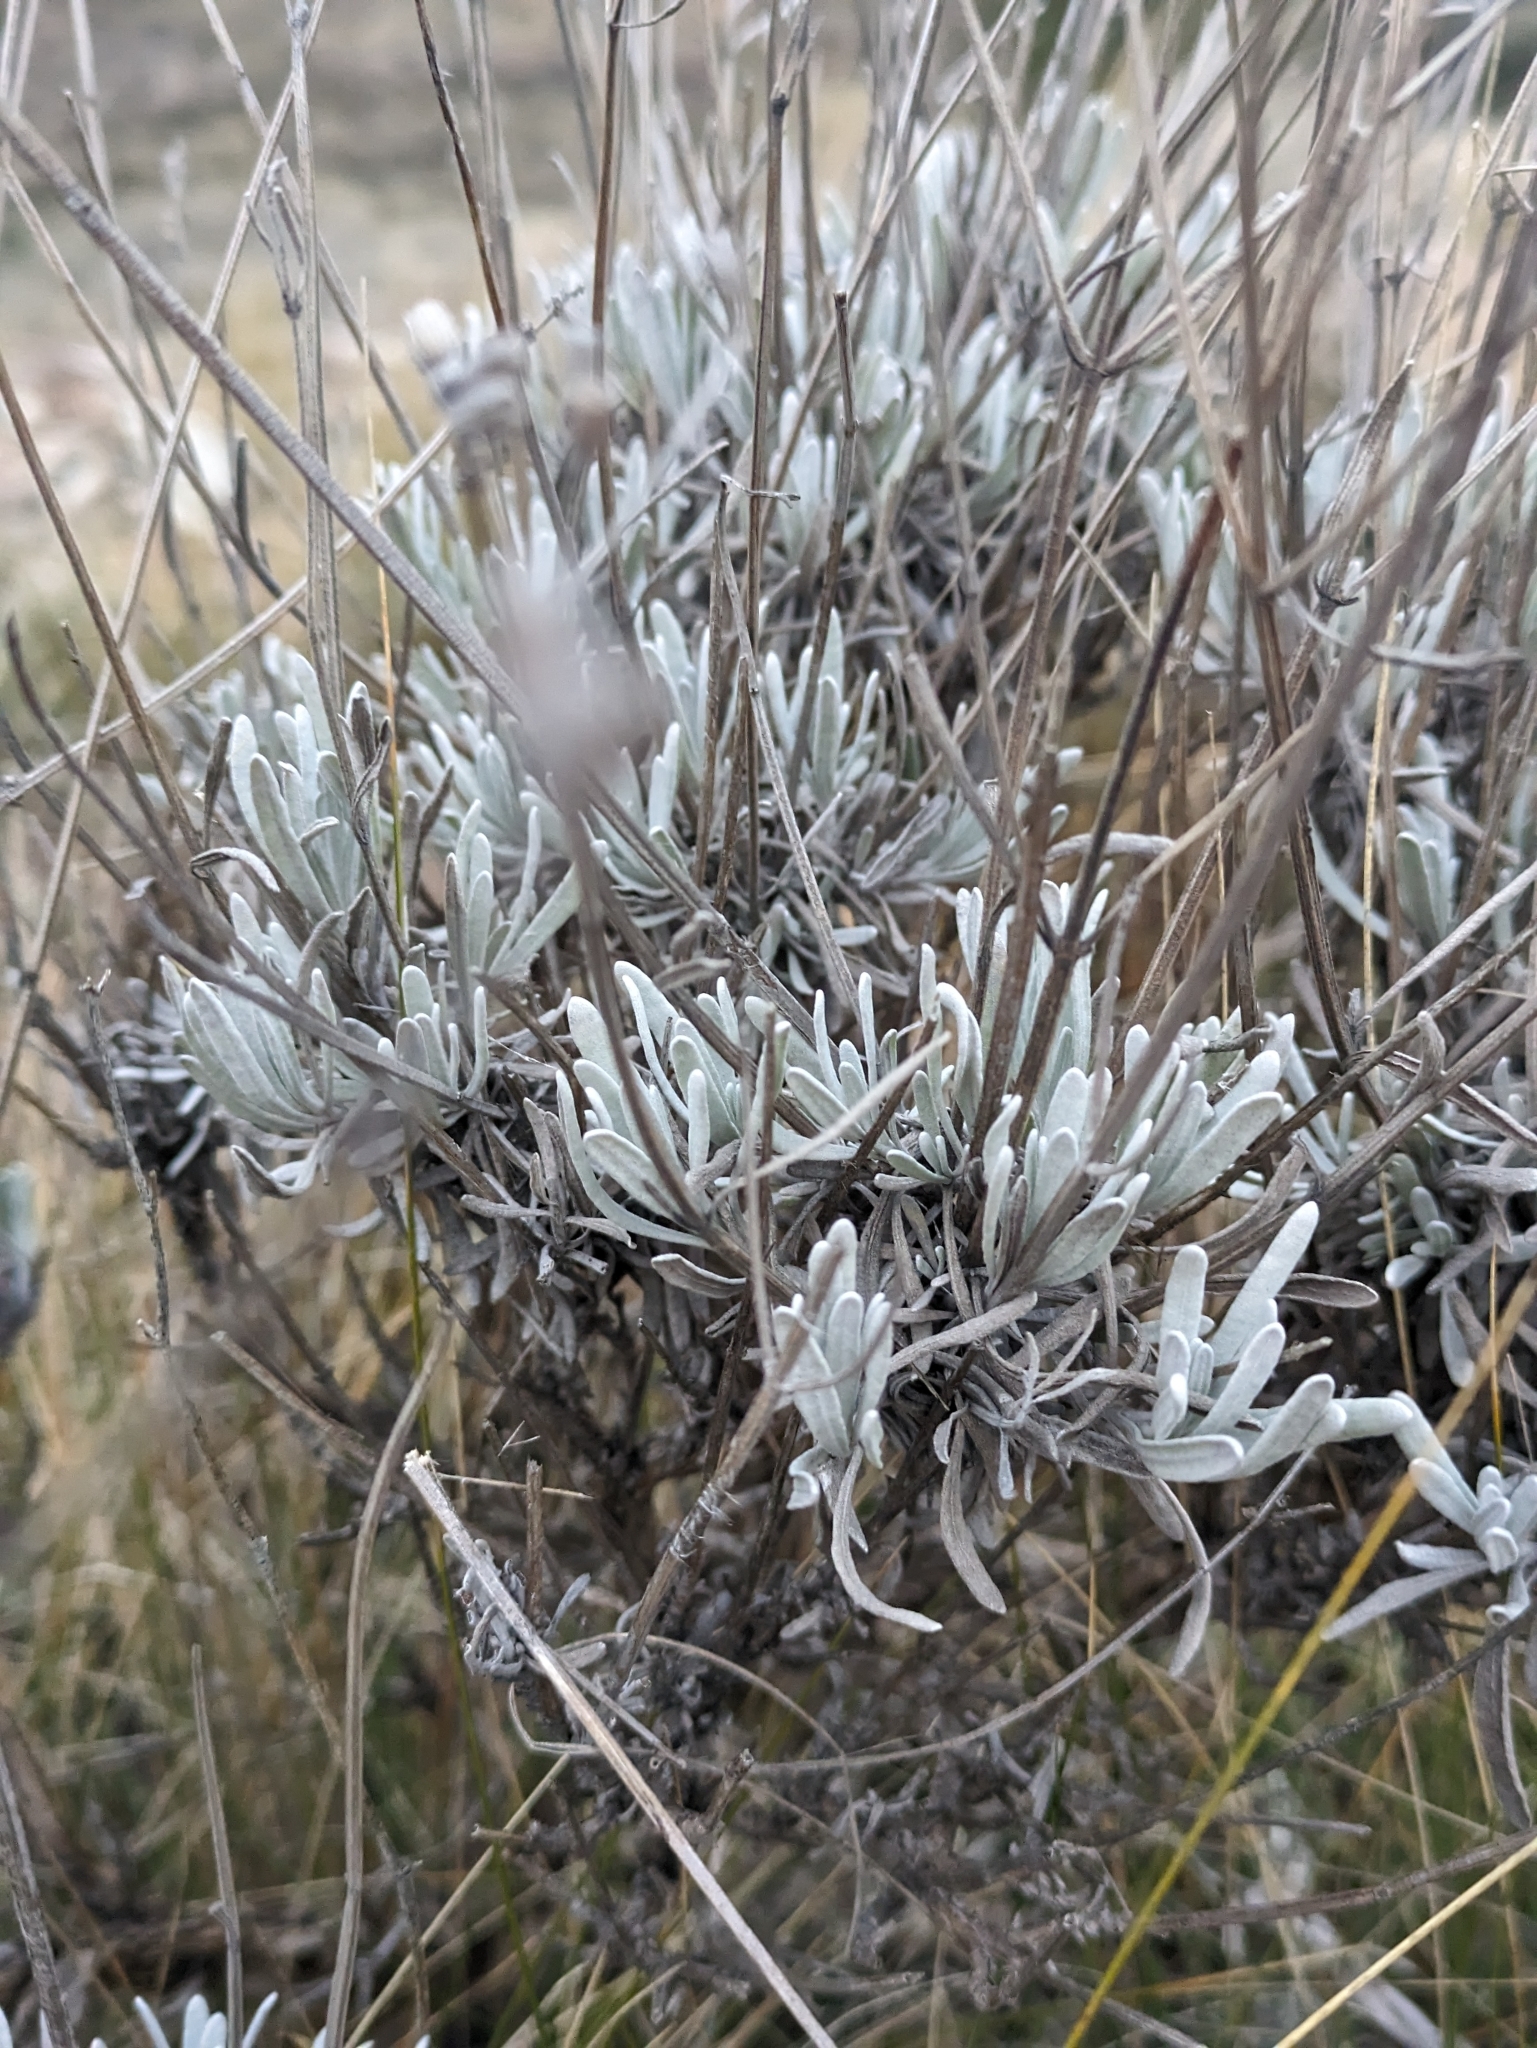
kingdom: Plantae
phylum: Tracheophyta
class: Magnoliopsida
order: Lamiales
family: Lamiaceae
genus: Lavandula
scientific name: Lavandula latifolia
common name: Spike lavendar
